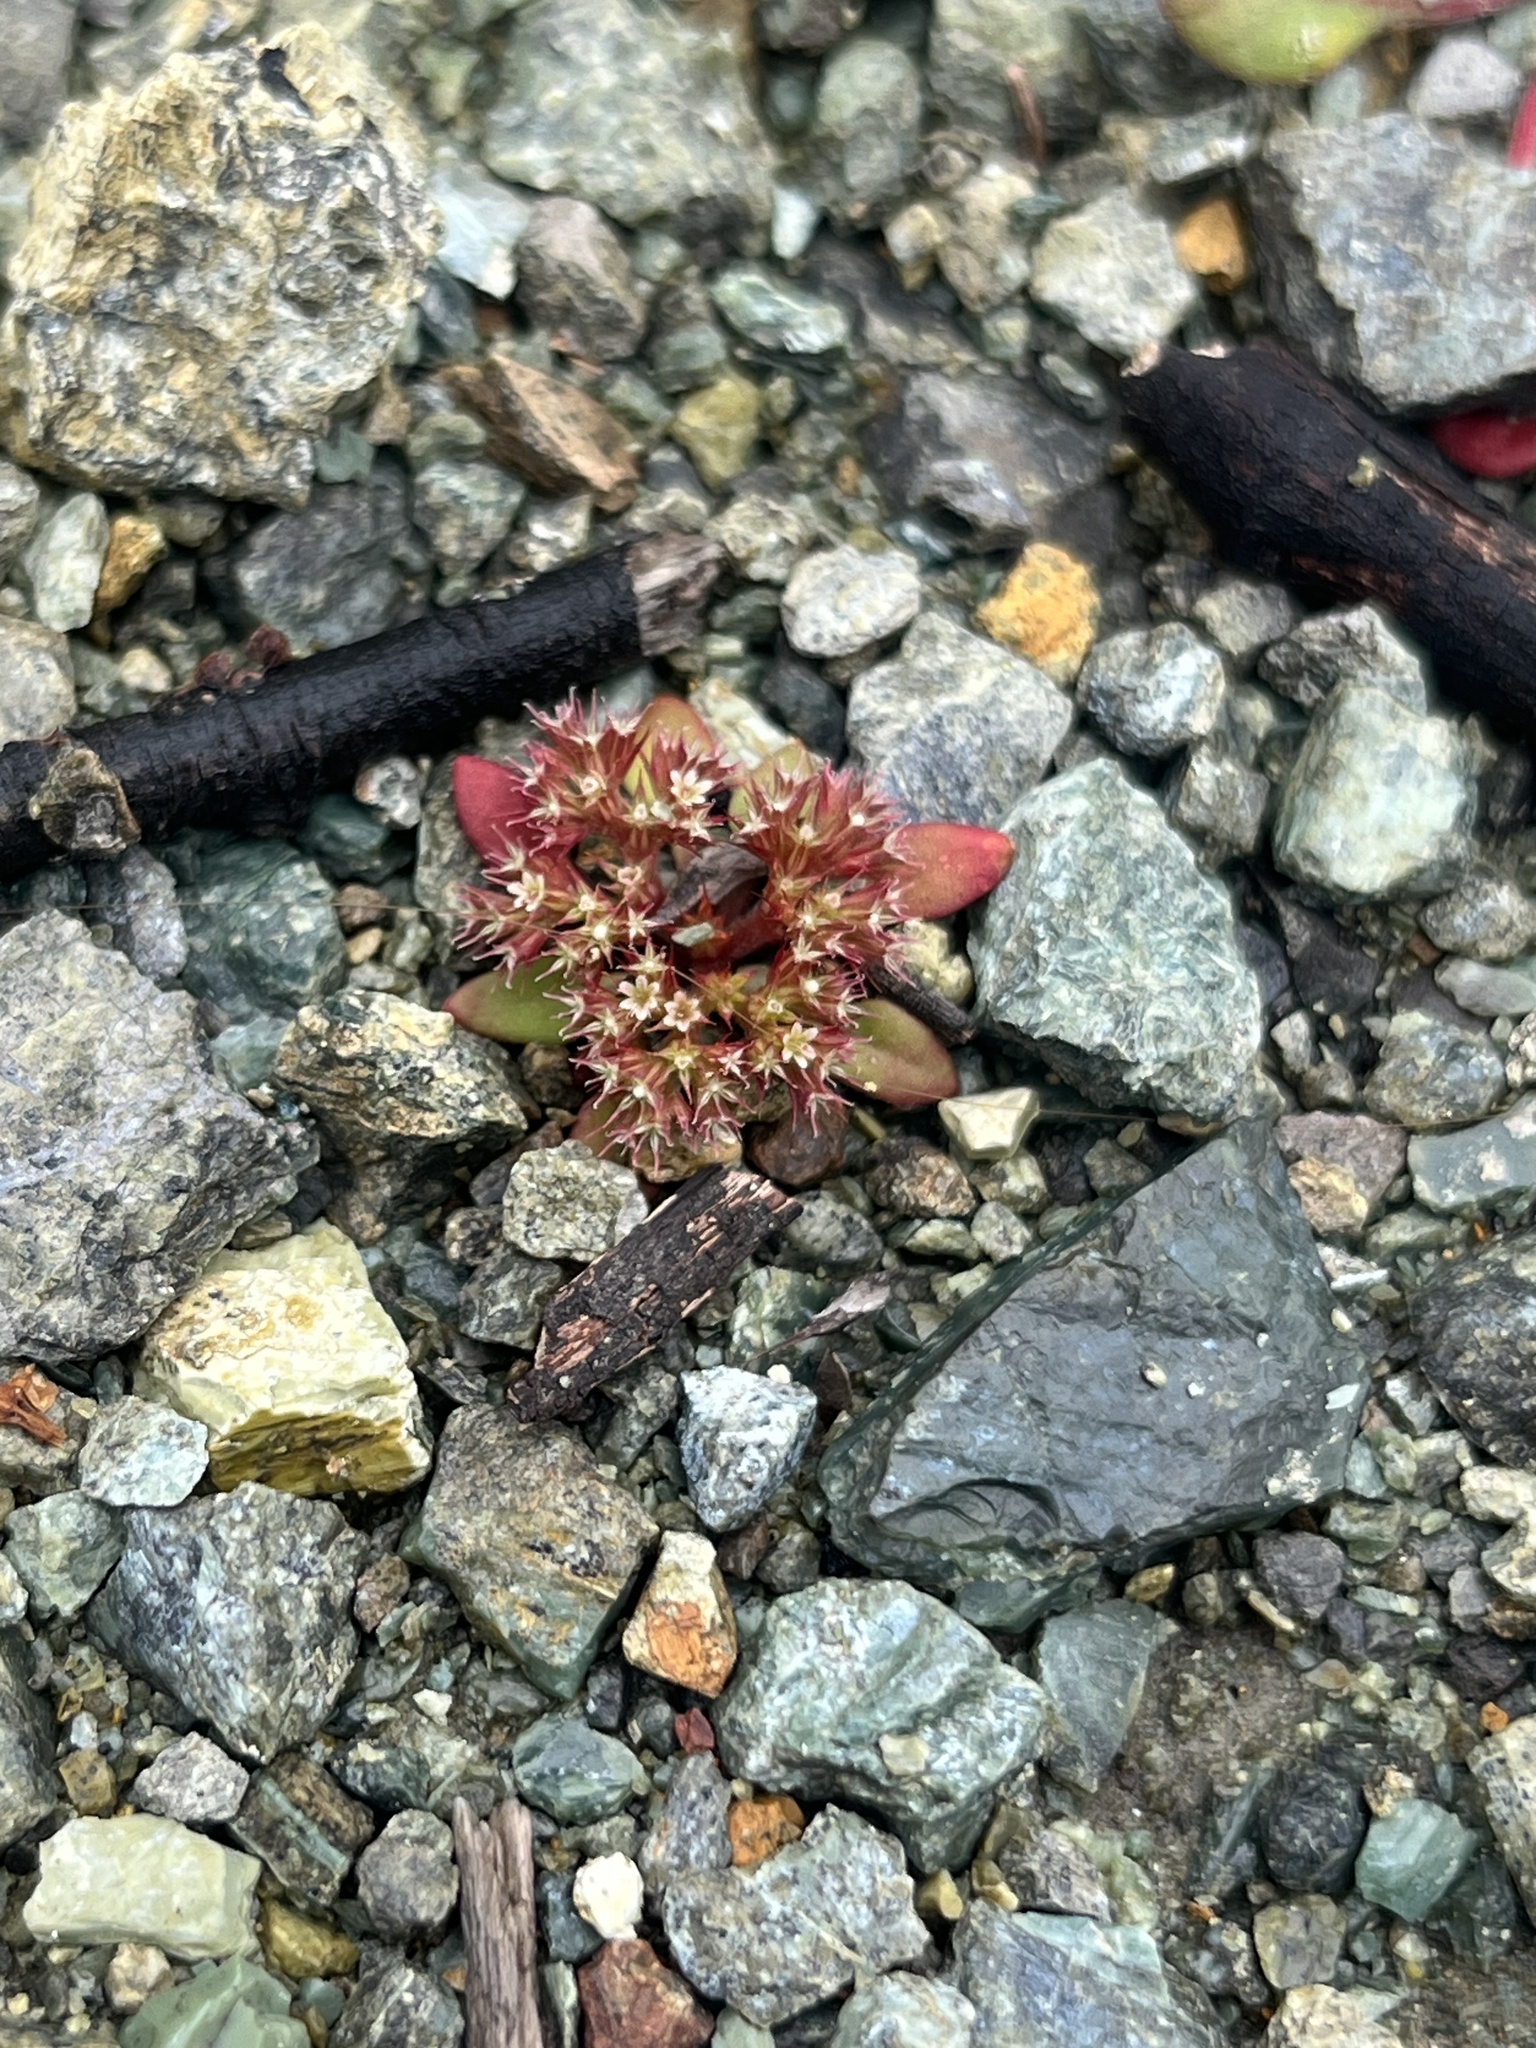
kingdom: Plantae
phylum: Tracheophyta
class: Magnoliopsida
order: Caryophyllales
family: Polygonaceae
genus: Chorizanthe
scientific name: Chorizanthe aphanantha
